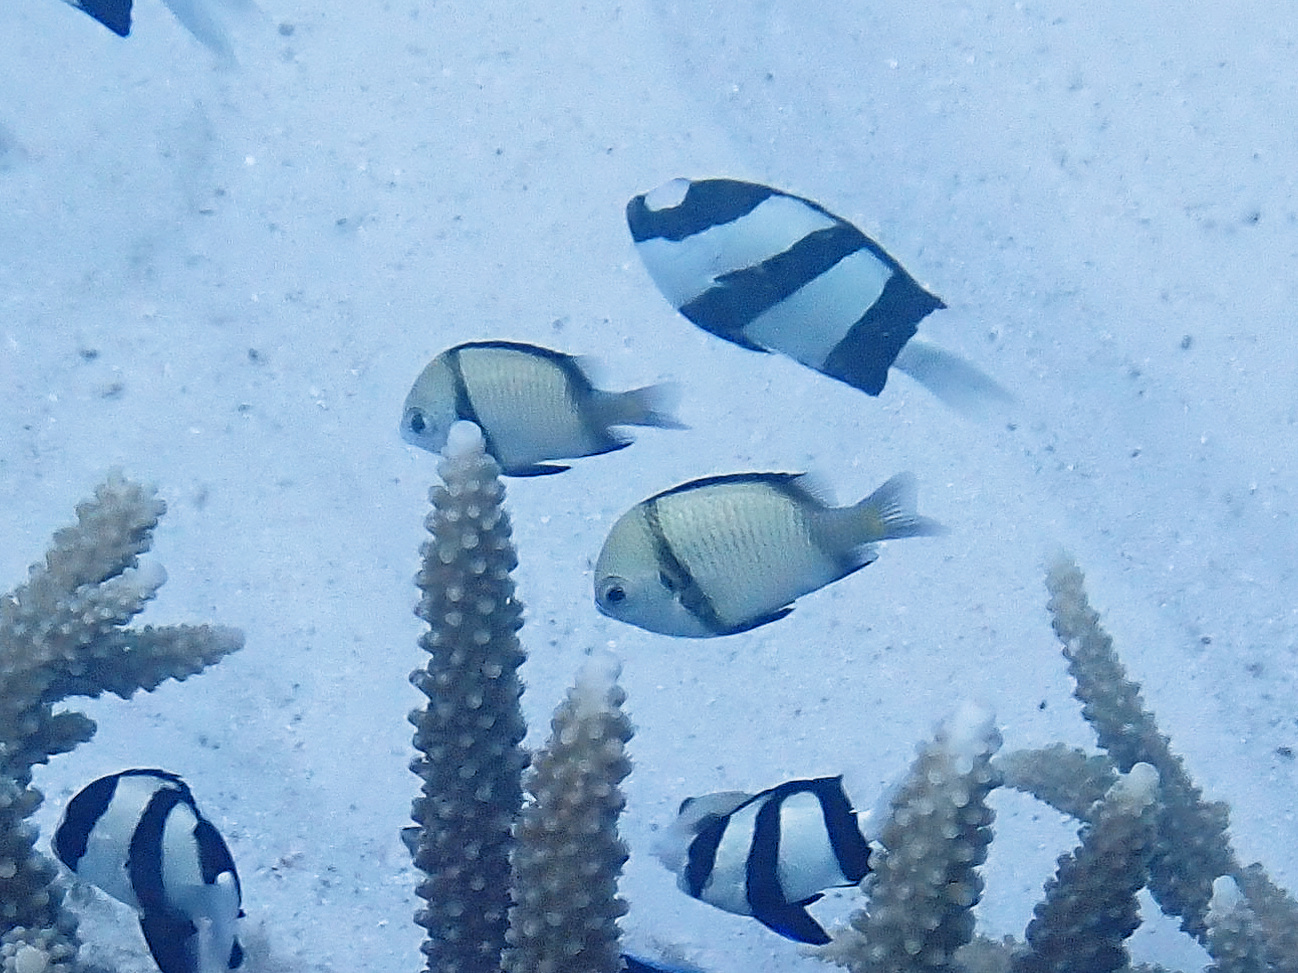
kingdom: Animalia
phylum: Chordata
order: Perciformes
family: Pomacentridae
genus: Dascyllus
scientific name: Dascyllus reticulatus
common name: Reticulated dascyllus
